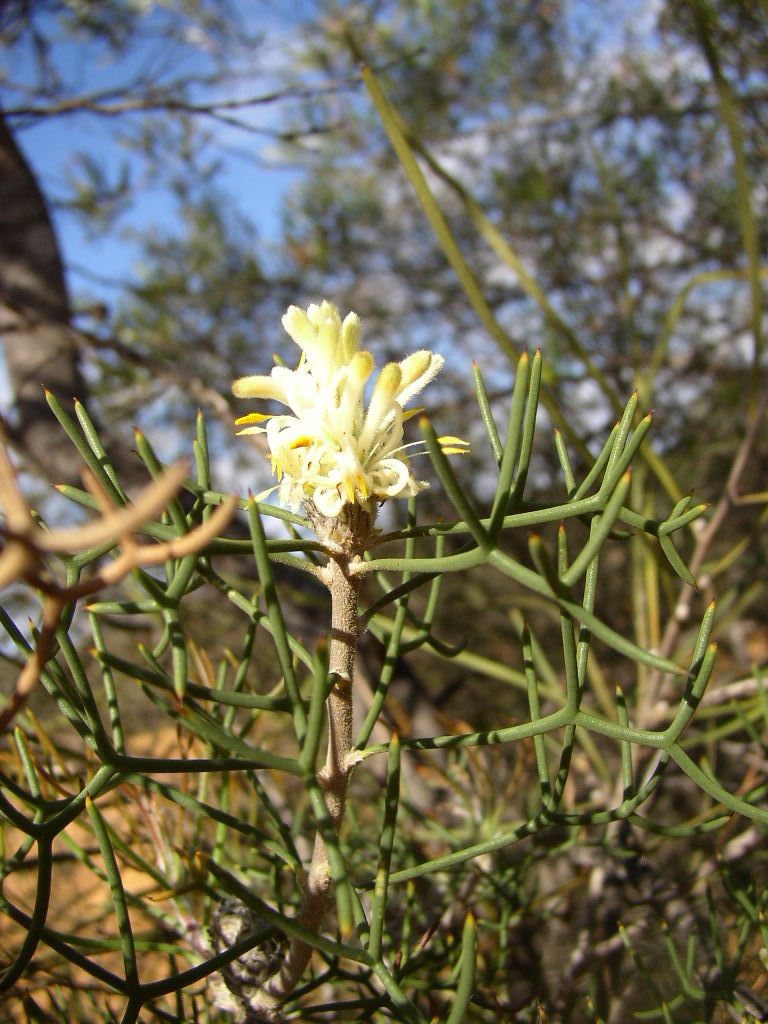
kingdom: Plantae
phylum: Tracheophyta
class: Magnoliopsida
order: Proteales
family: Proteaceae
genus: Petrophile
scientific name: Petrophile foremanii
